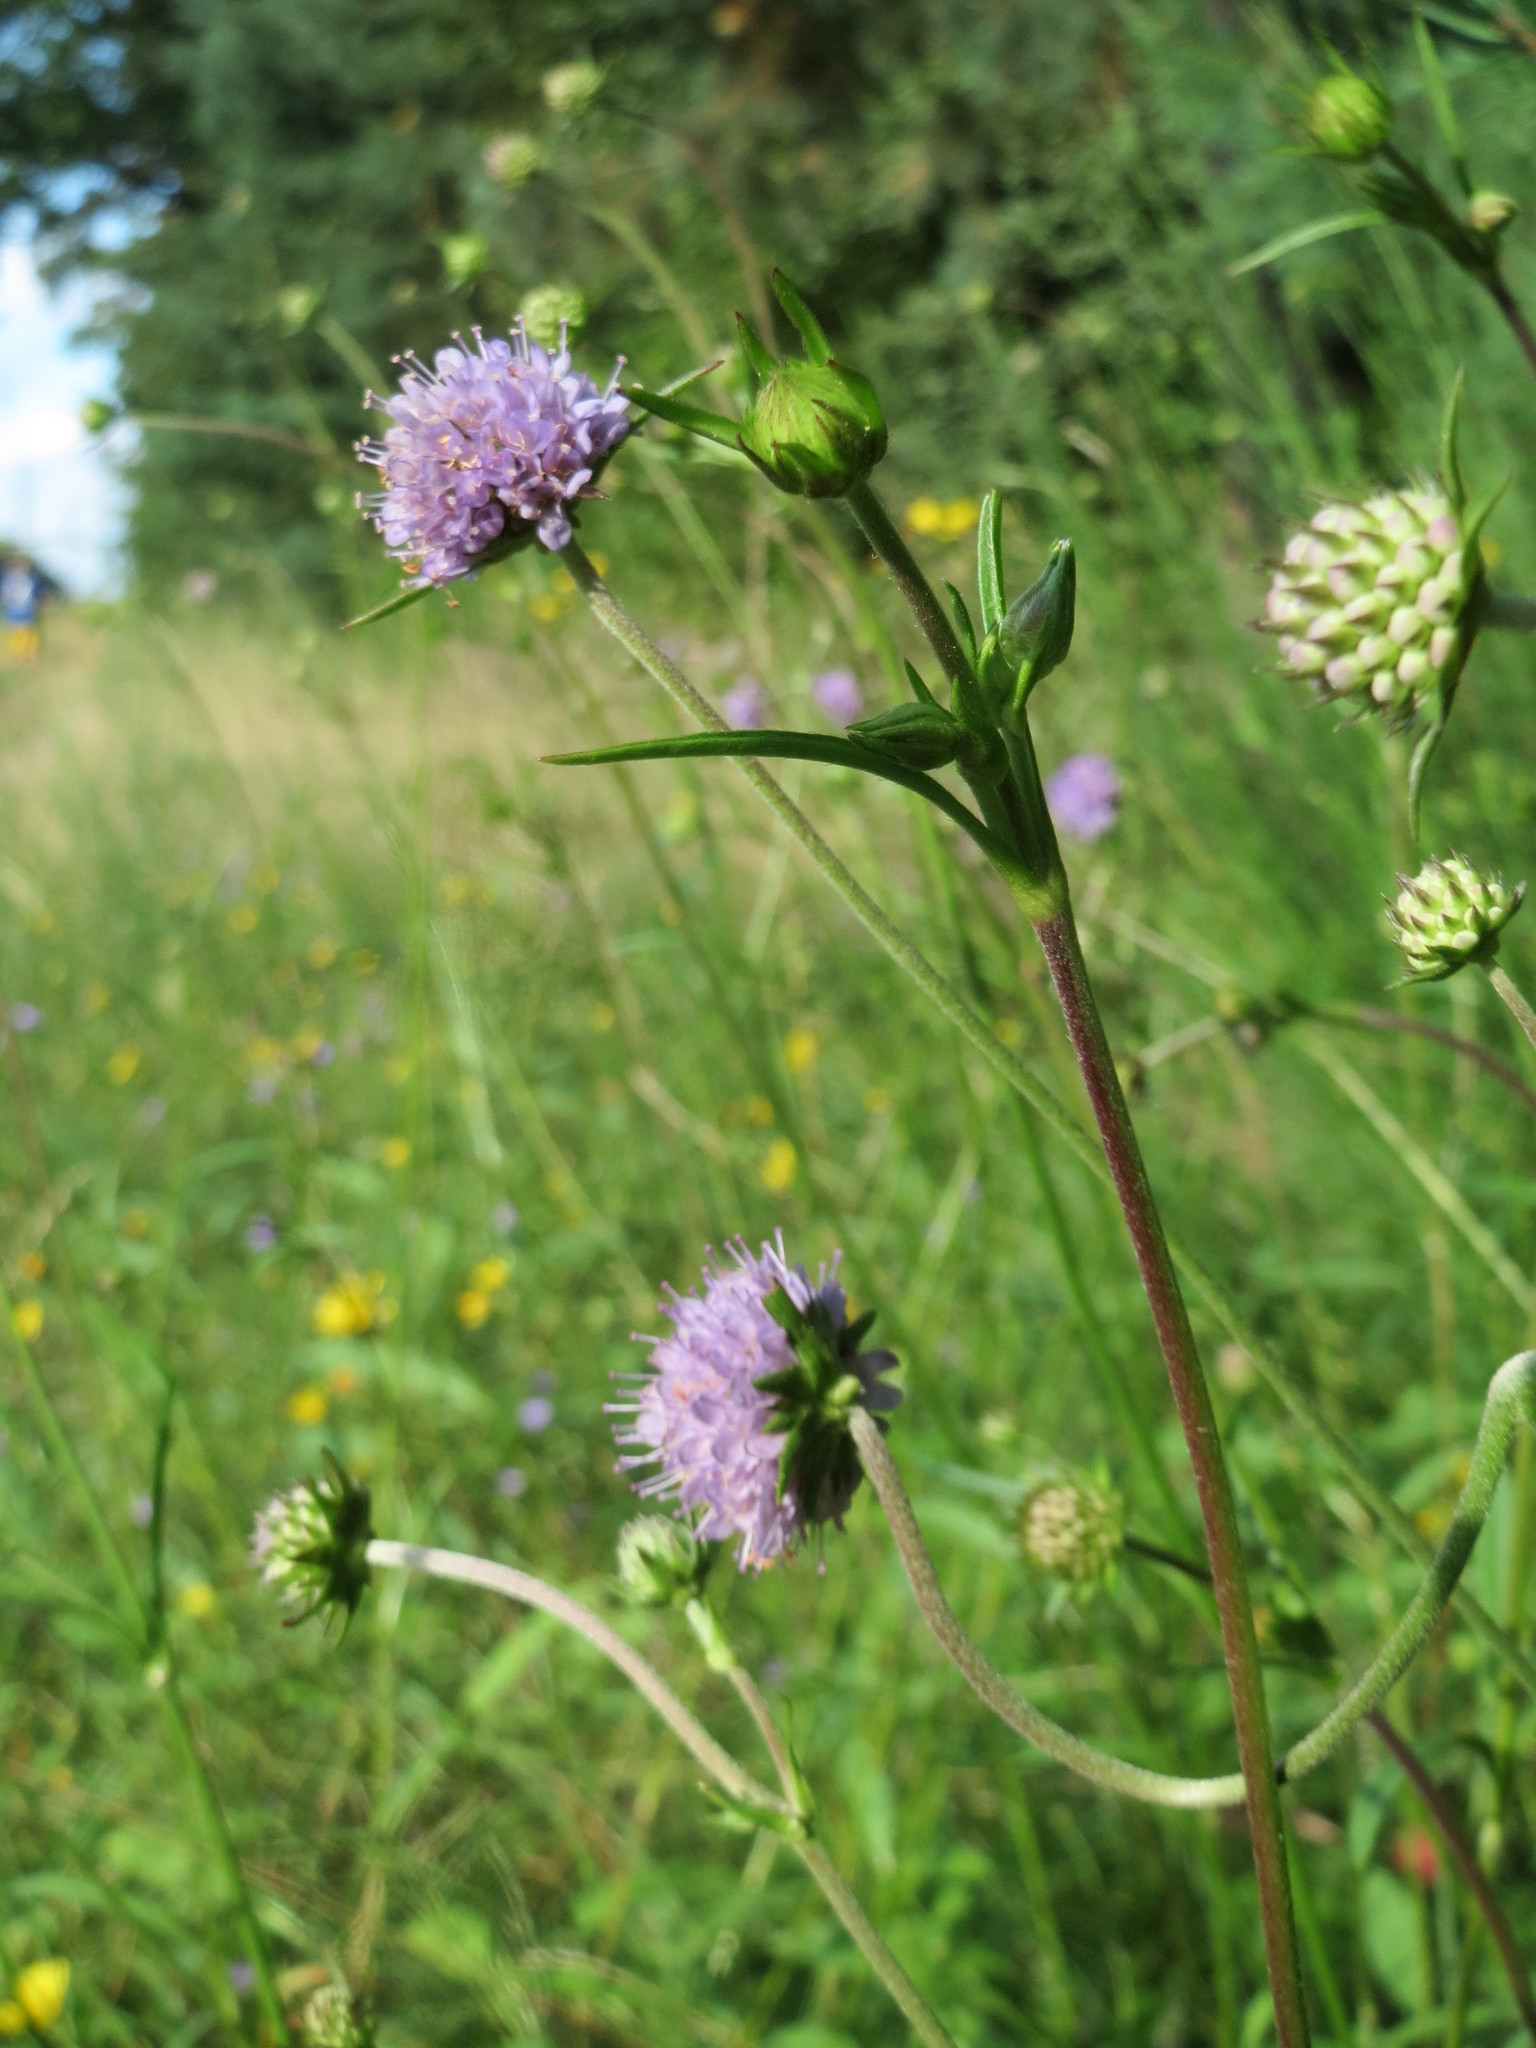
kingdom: Plantae
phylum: Tracheophyta
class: Magnoliopsida
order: Dipsacales
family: Caprifoliaceae
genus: Succisa
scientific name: Succisa pratensis
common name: Devil's-bit
